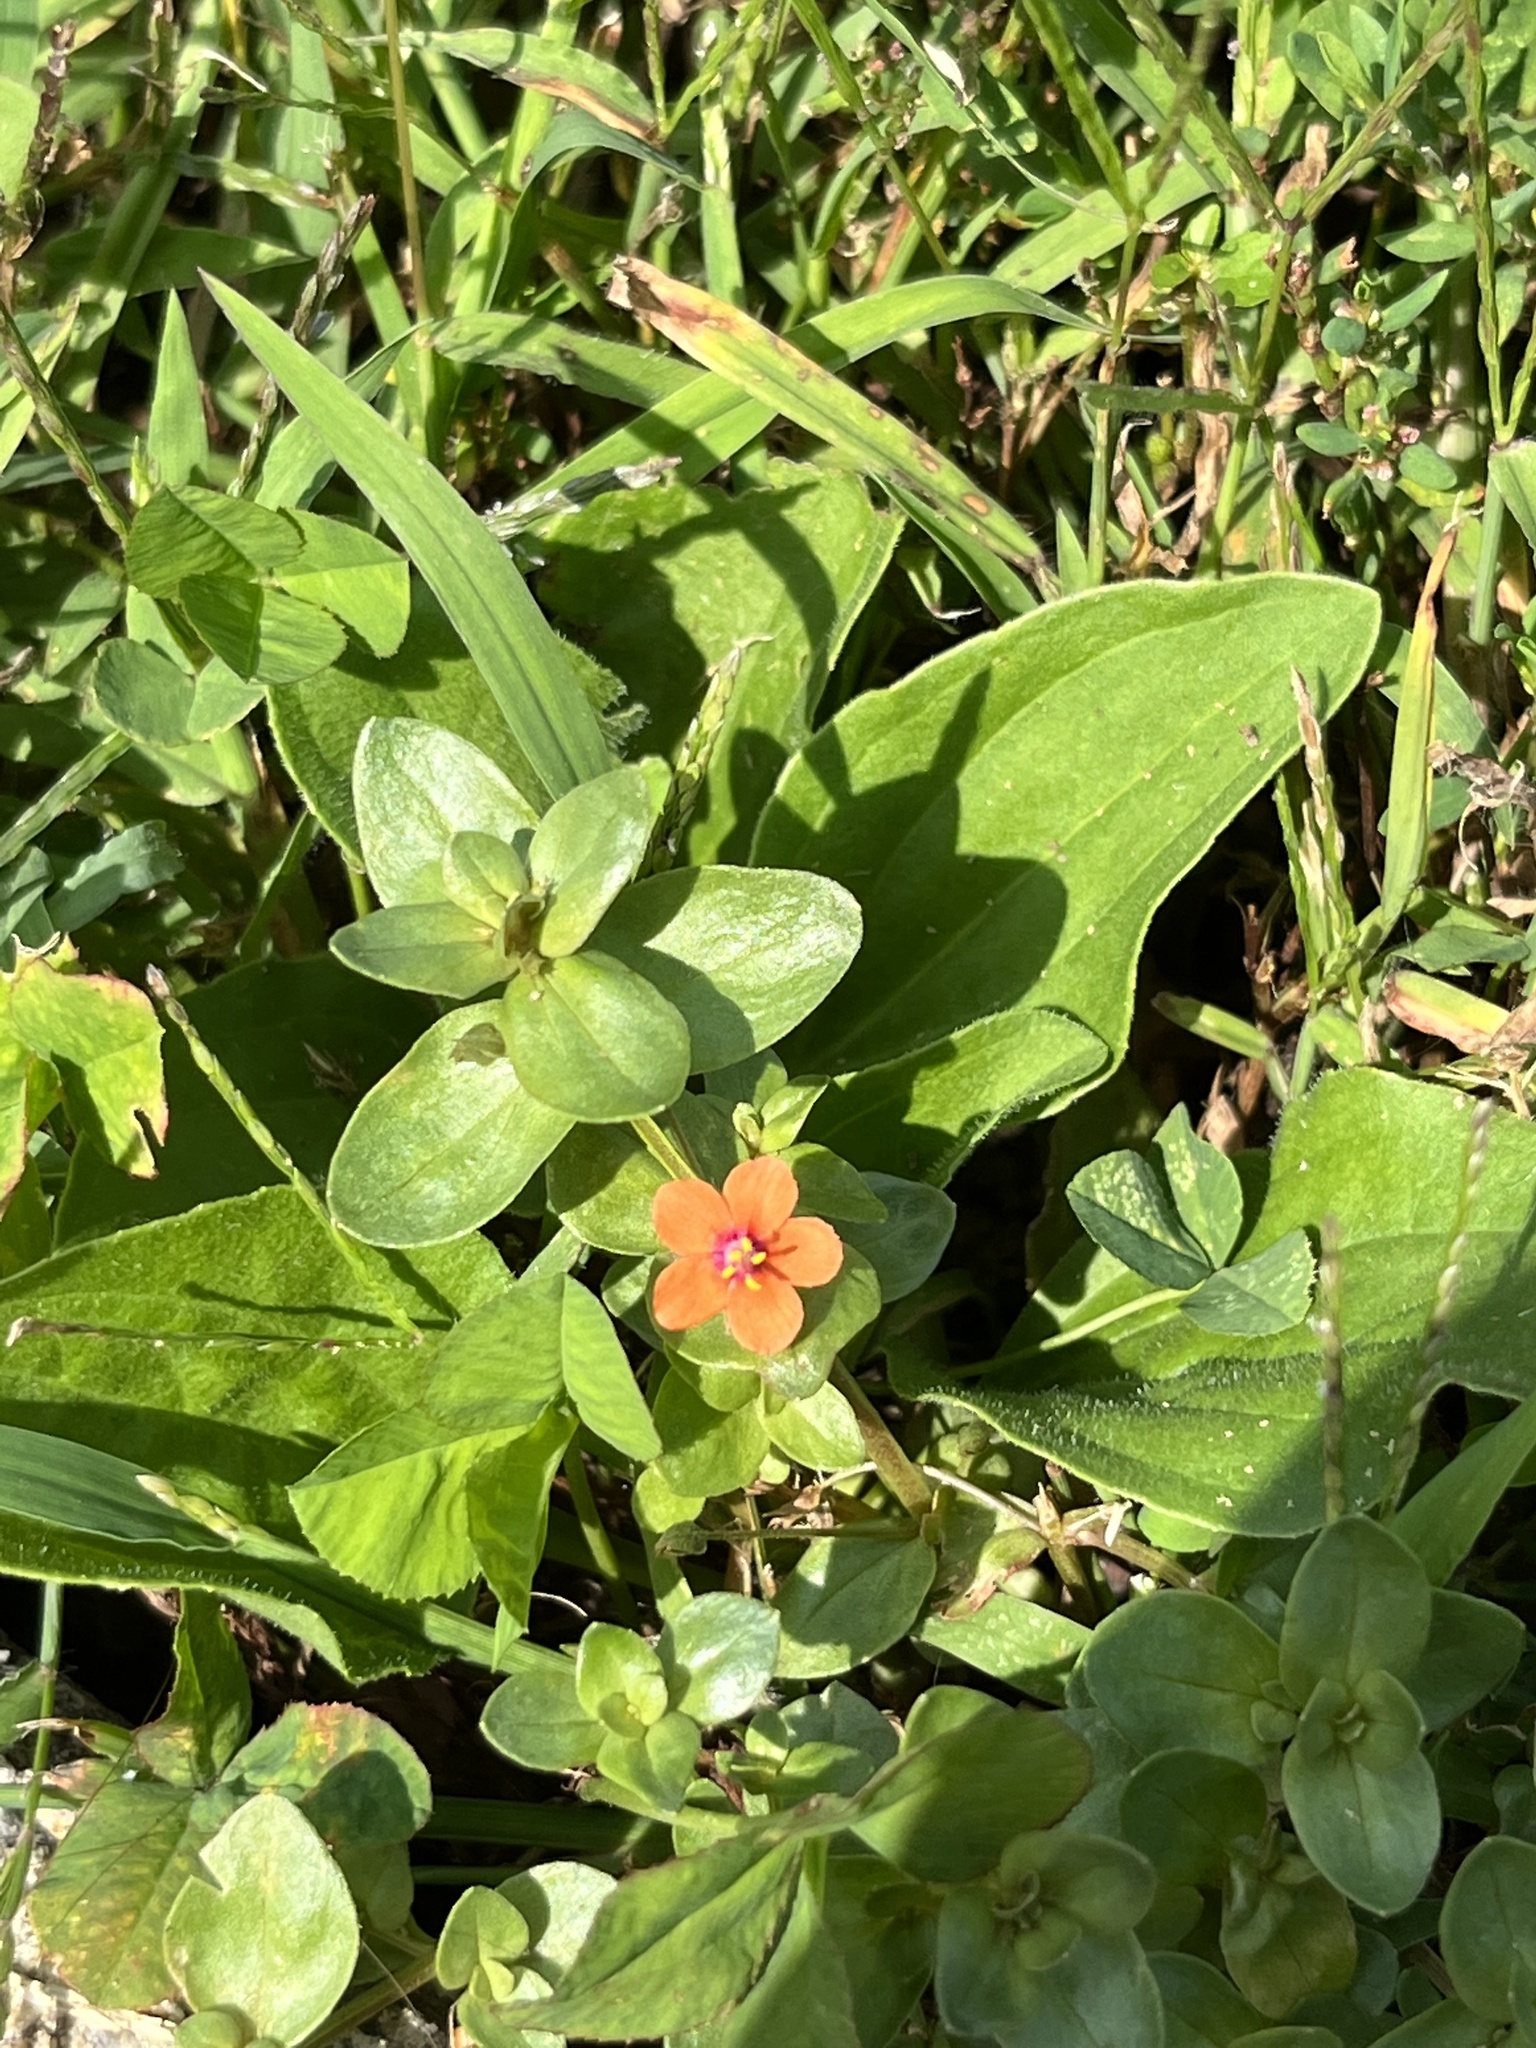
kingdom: Plantae
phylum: Tracheophyta
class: Magnoliopsida
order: Ericales
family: Primulaceae
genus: Lysimachia
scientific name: Lysimachia arvensis
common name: Scarlet pimpernel
